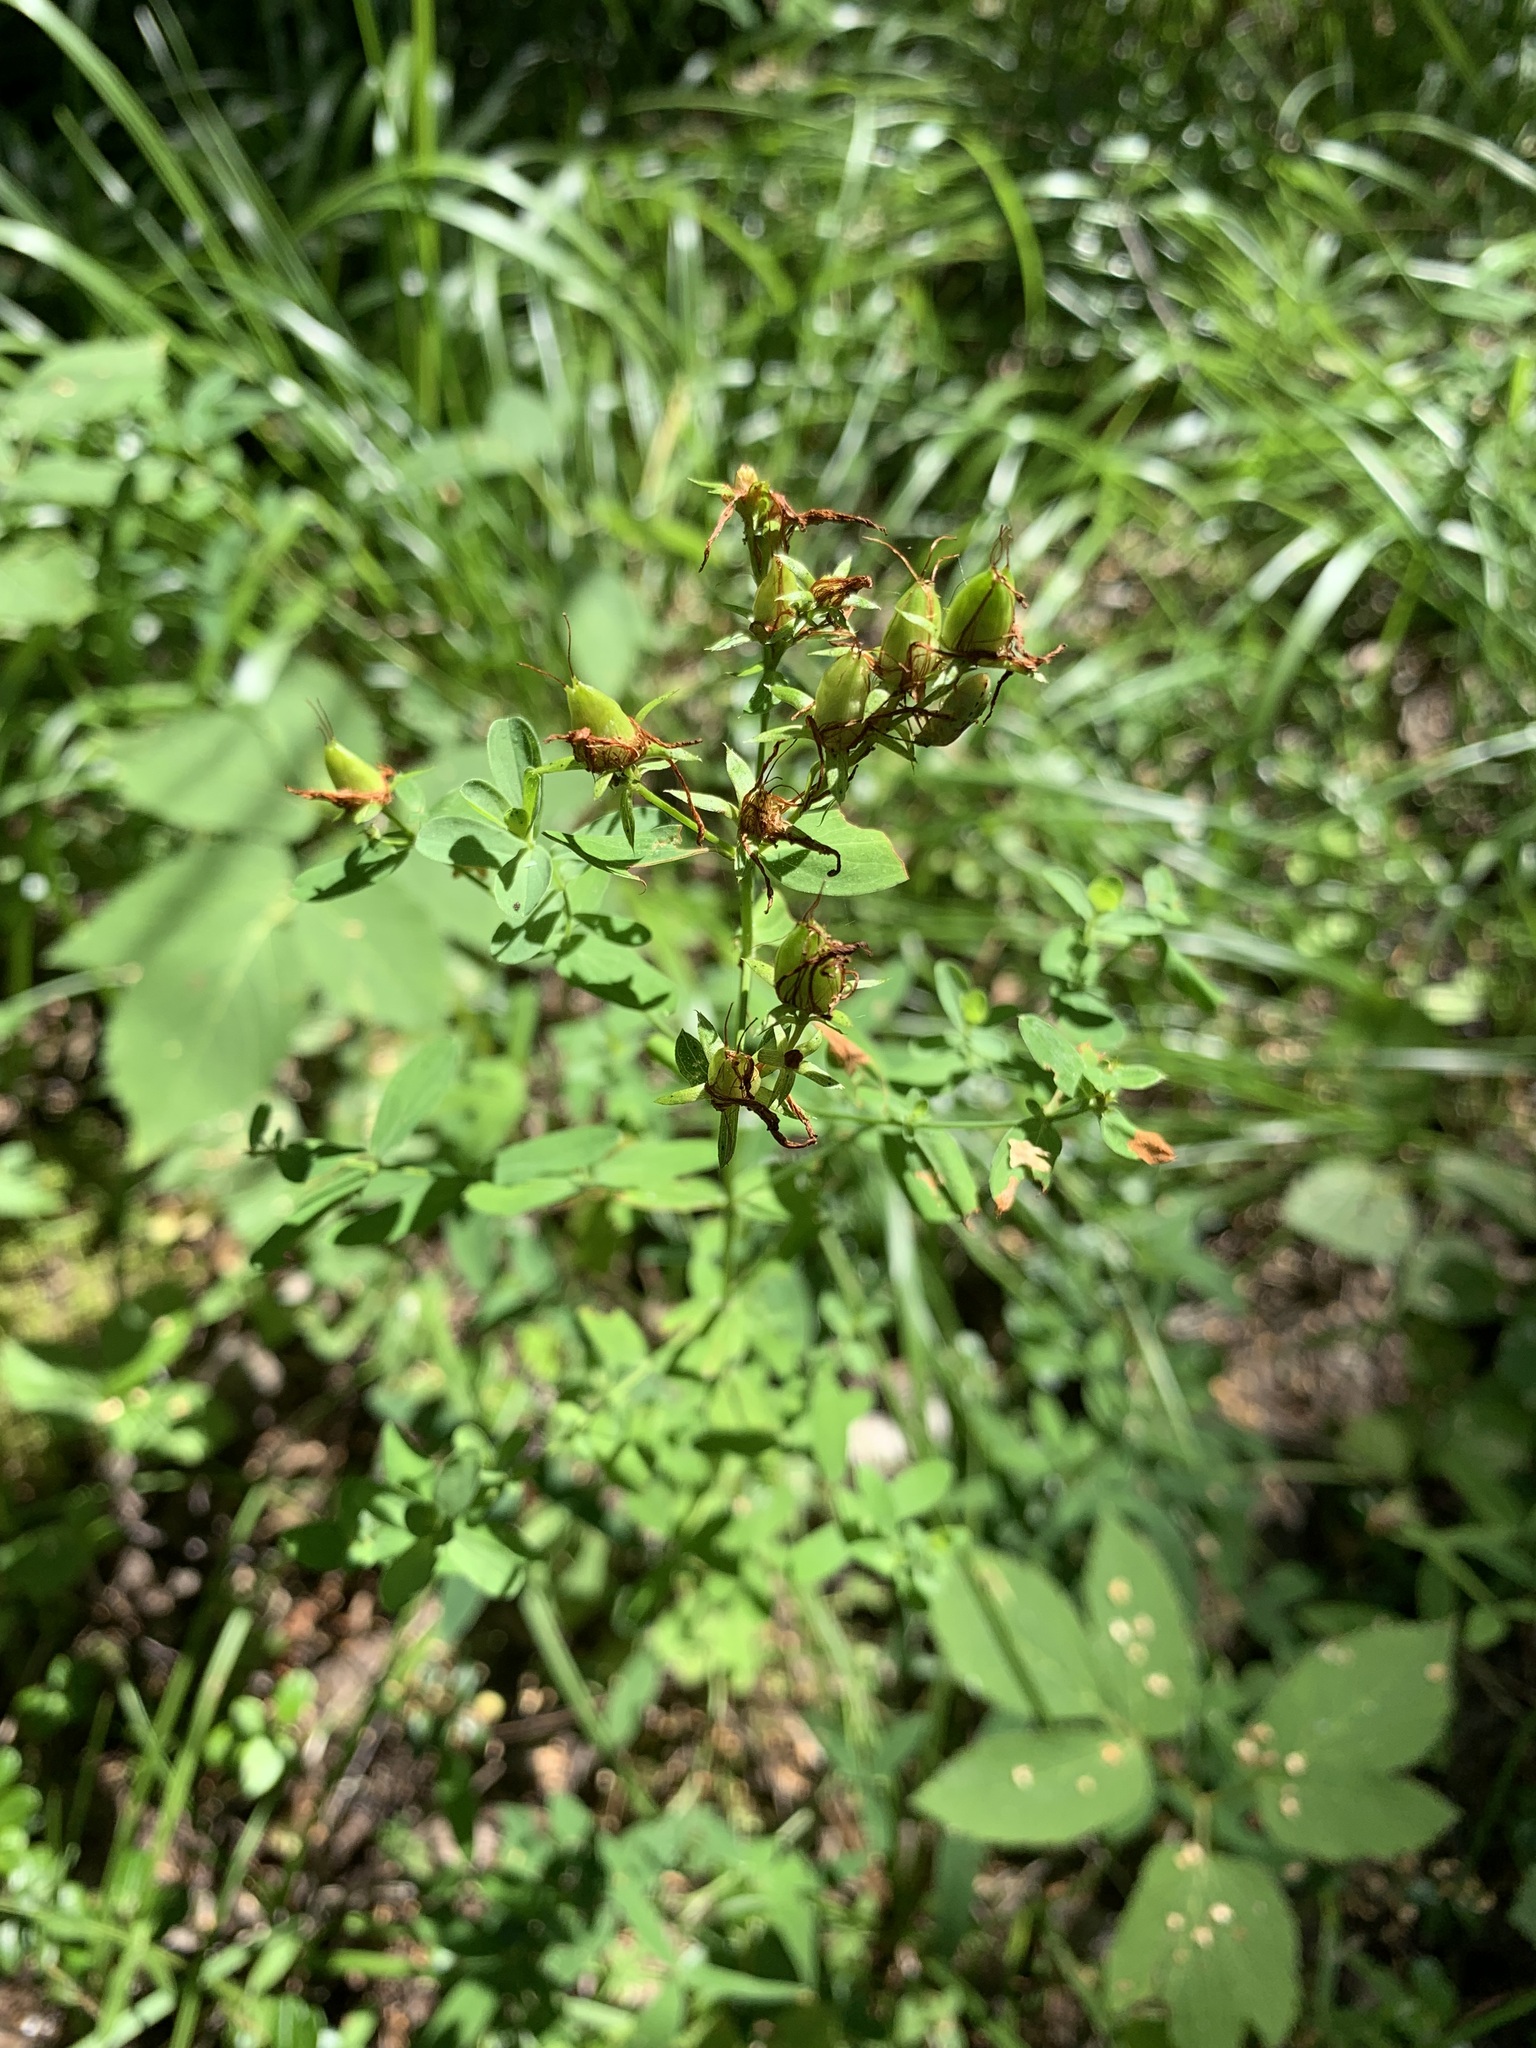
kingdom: Plantae
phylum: Tracheophyta
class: Magnoliopsida
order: Malpighiales
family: Hypericaceae
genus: Hypericum
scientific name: Hypericum perforatum
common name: Common st. johnswort
